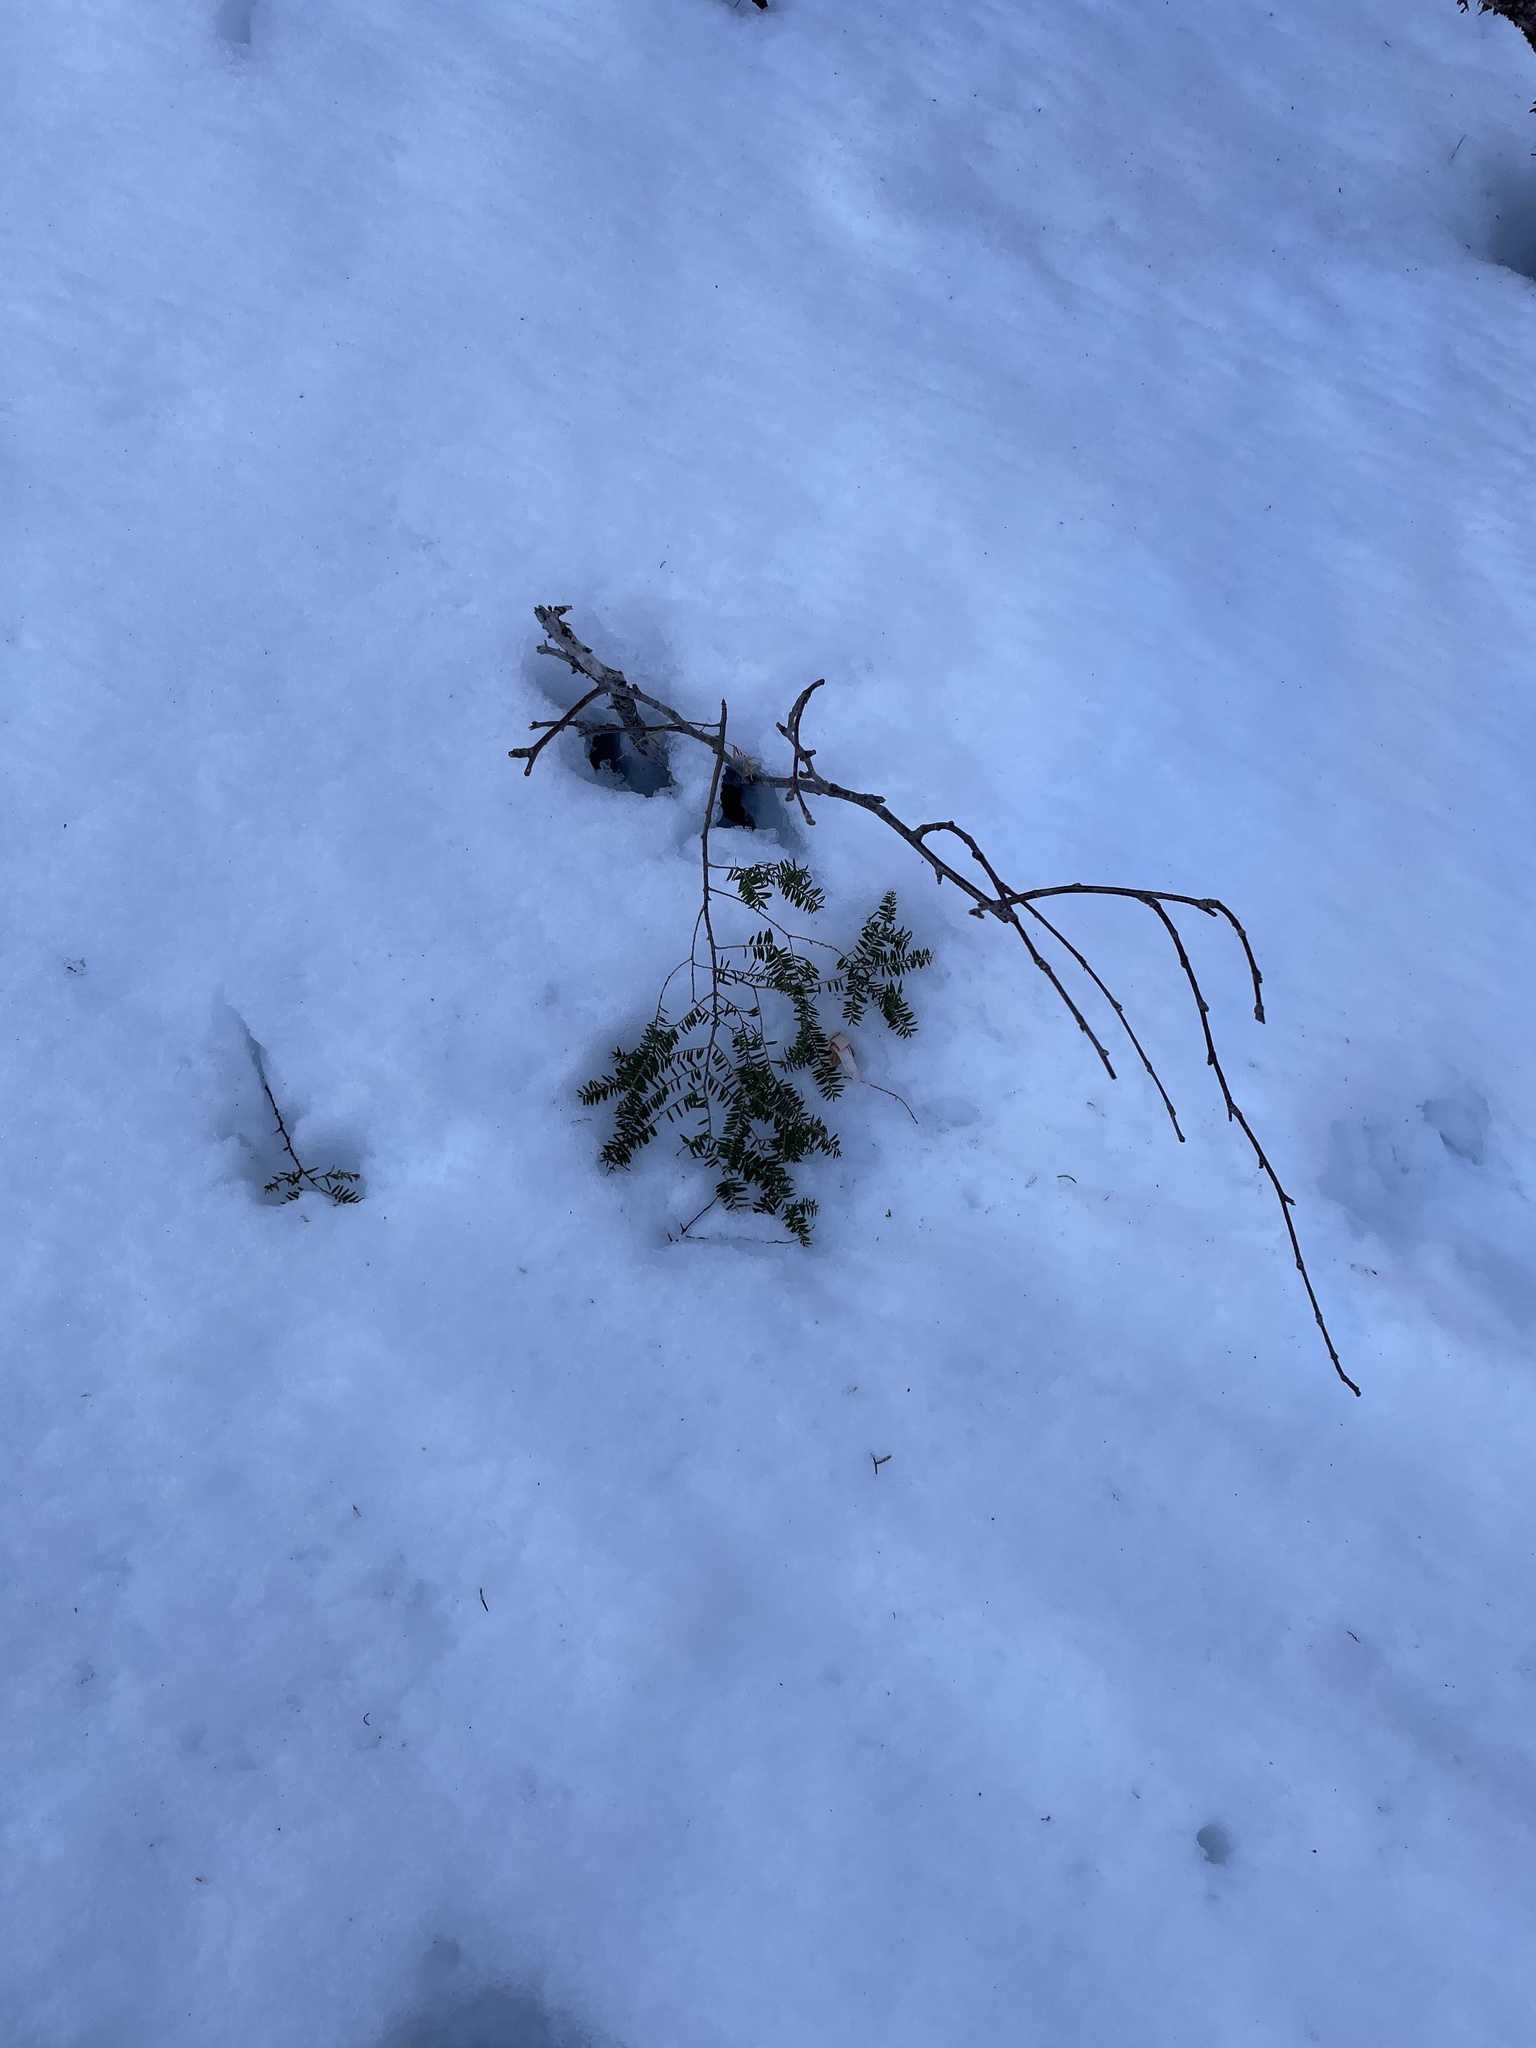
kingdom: Plantae
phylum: Tracheophyta
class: Pinopsida
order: Pinales
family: Pinaceae
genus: Tsuga
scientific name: Tsuga canadensis
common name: Eastern hemlock
